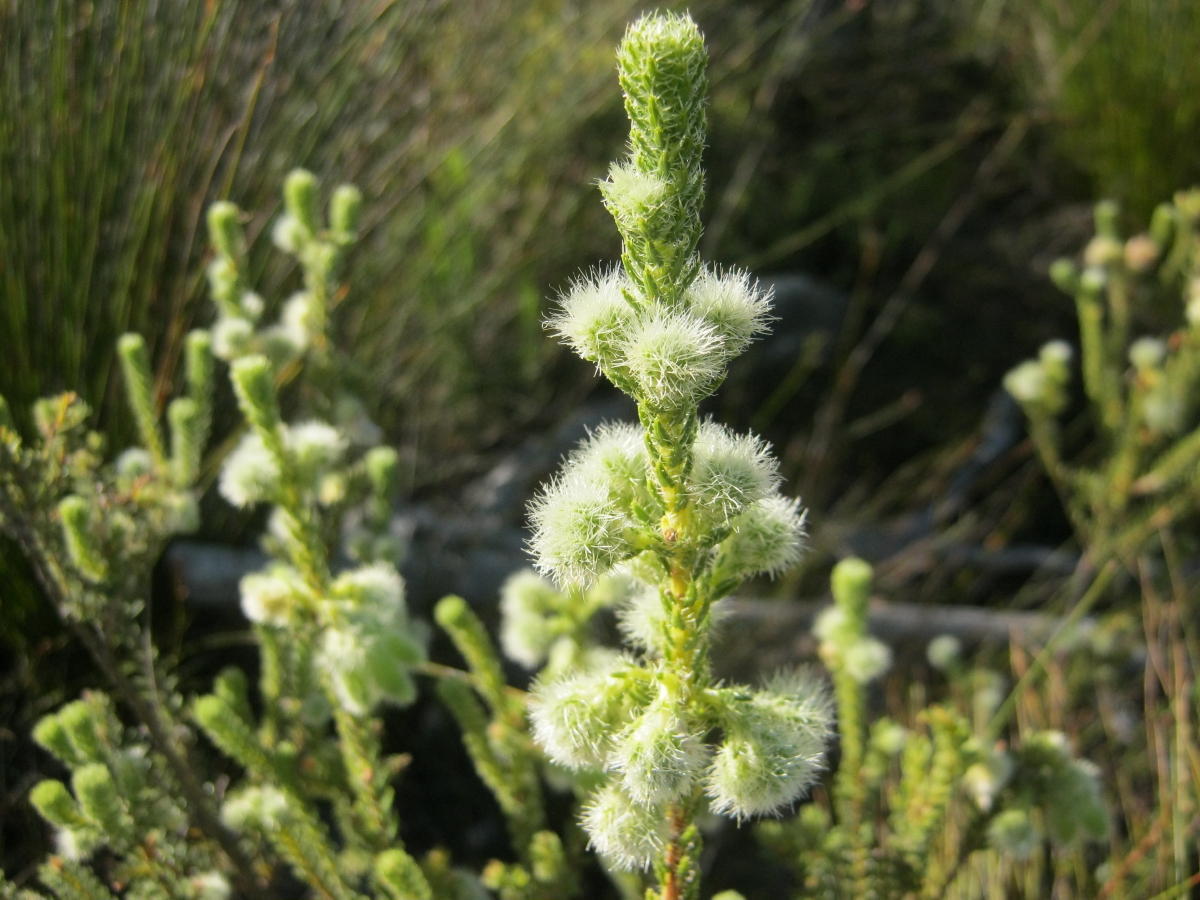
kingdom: Plantae
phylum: Tracheophyta
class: Magnoliopsida
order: Ericales
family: Ericaceae
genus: Erica
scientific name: Erica sparmannii
